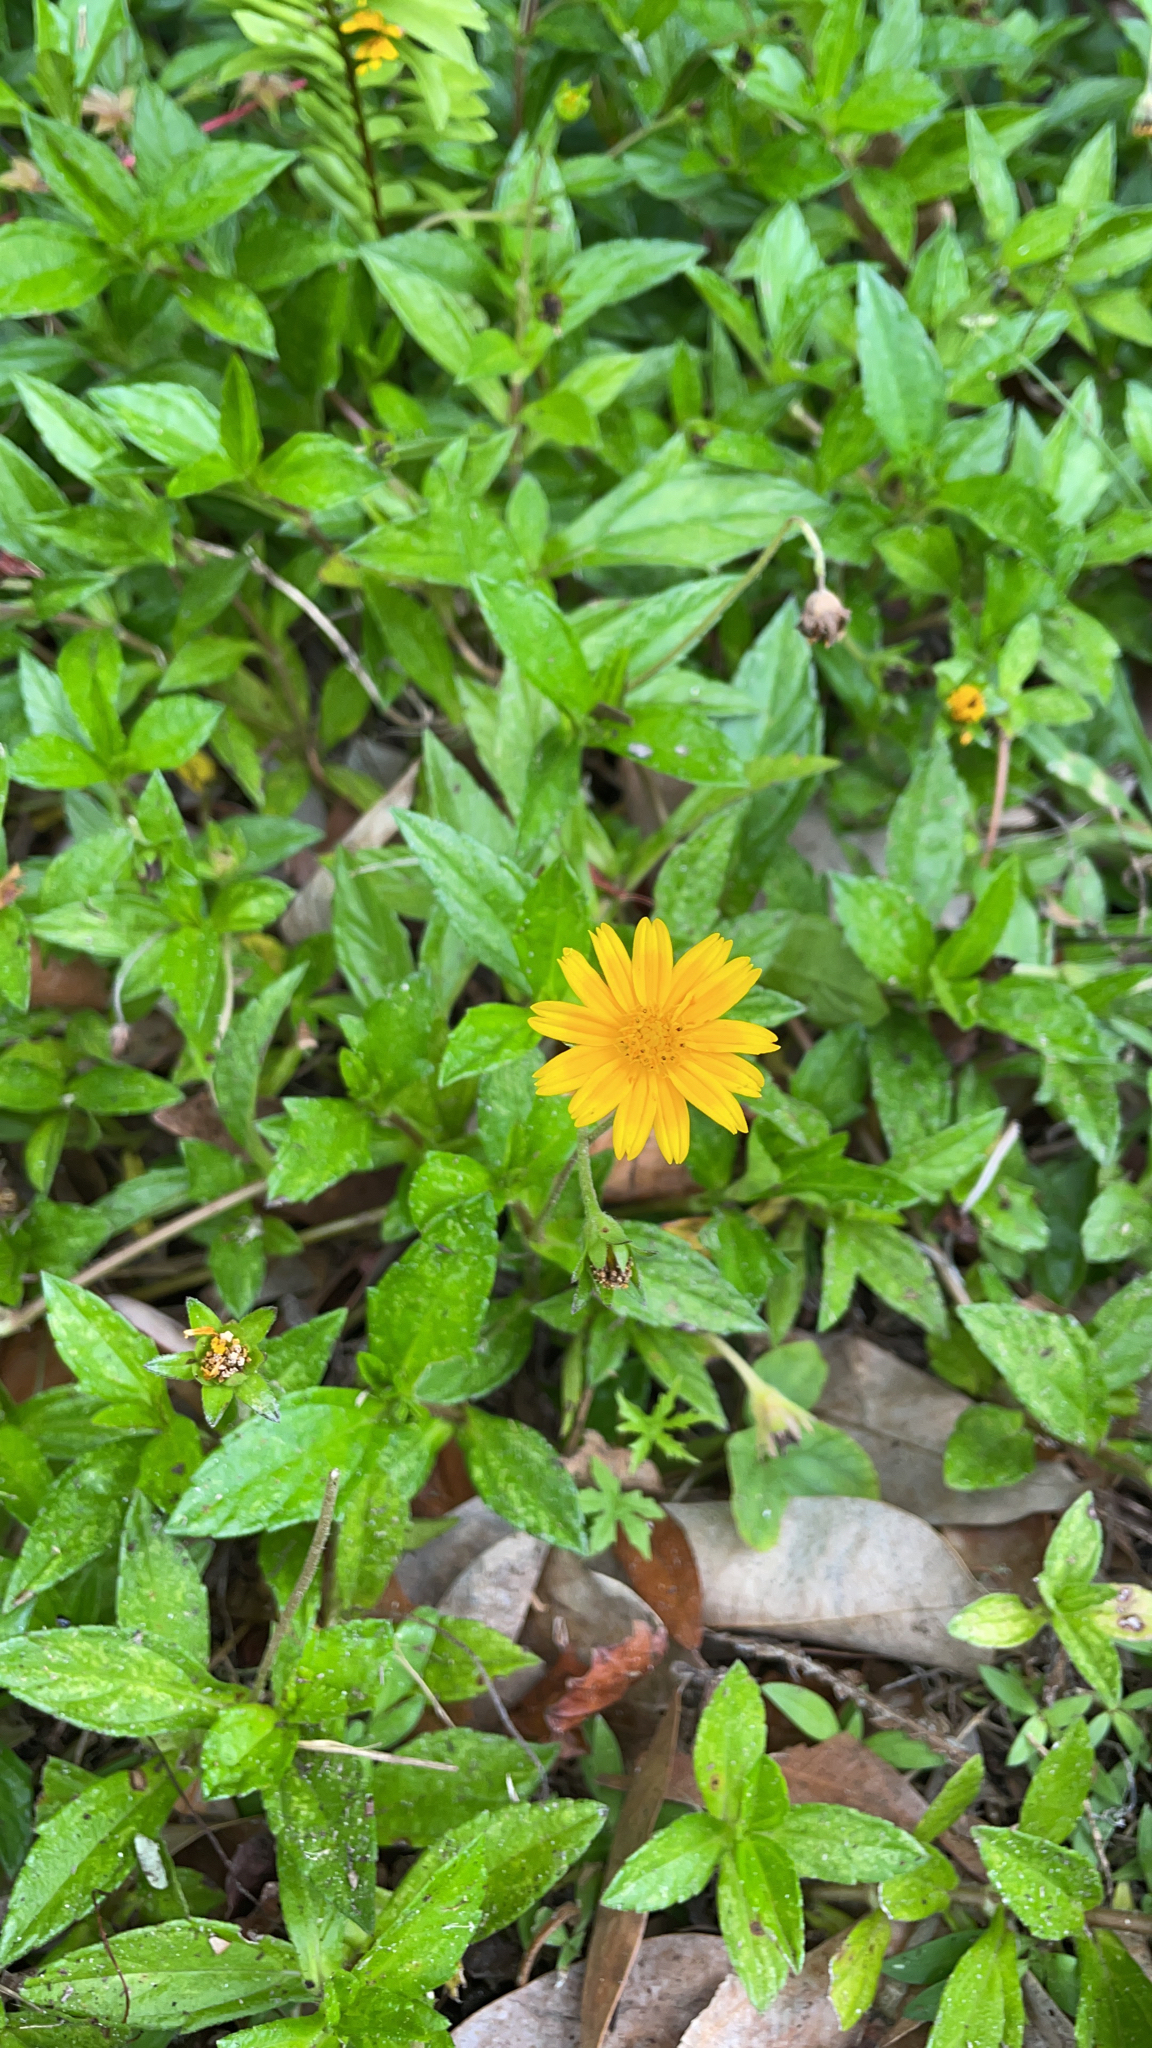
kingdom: Plantae
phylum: Tracheophyta
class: Magnoliopsida
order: Asterales
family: Asteraceae
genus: Sphagneticola
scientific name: Sphagneticola trilobata
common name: Bay biscayne creeping-oxeye
